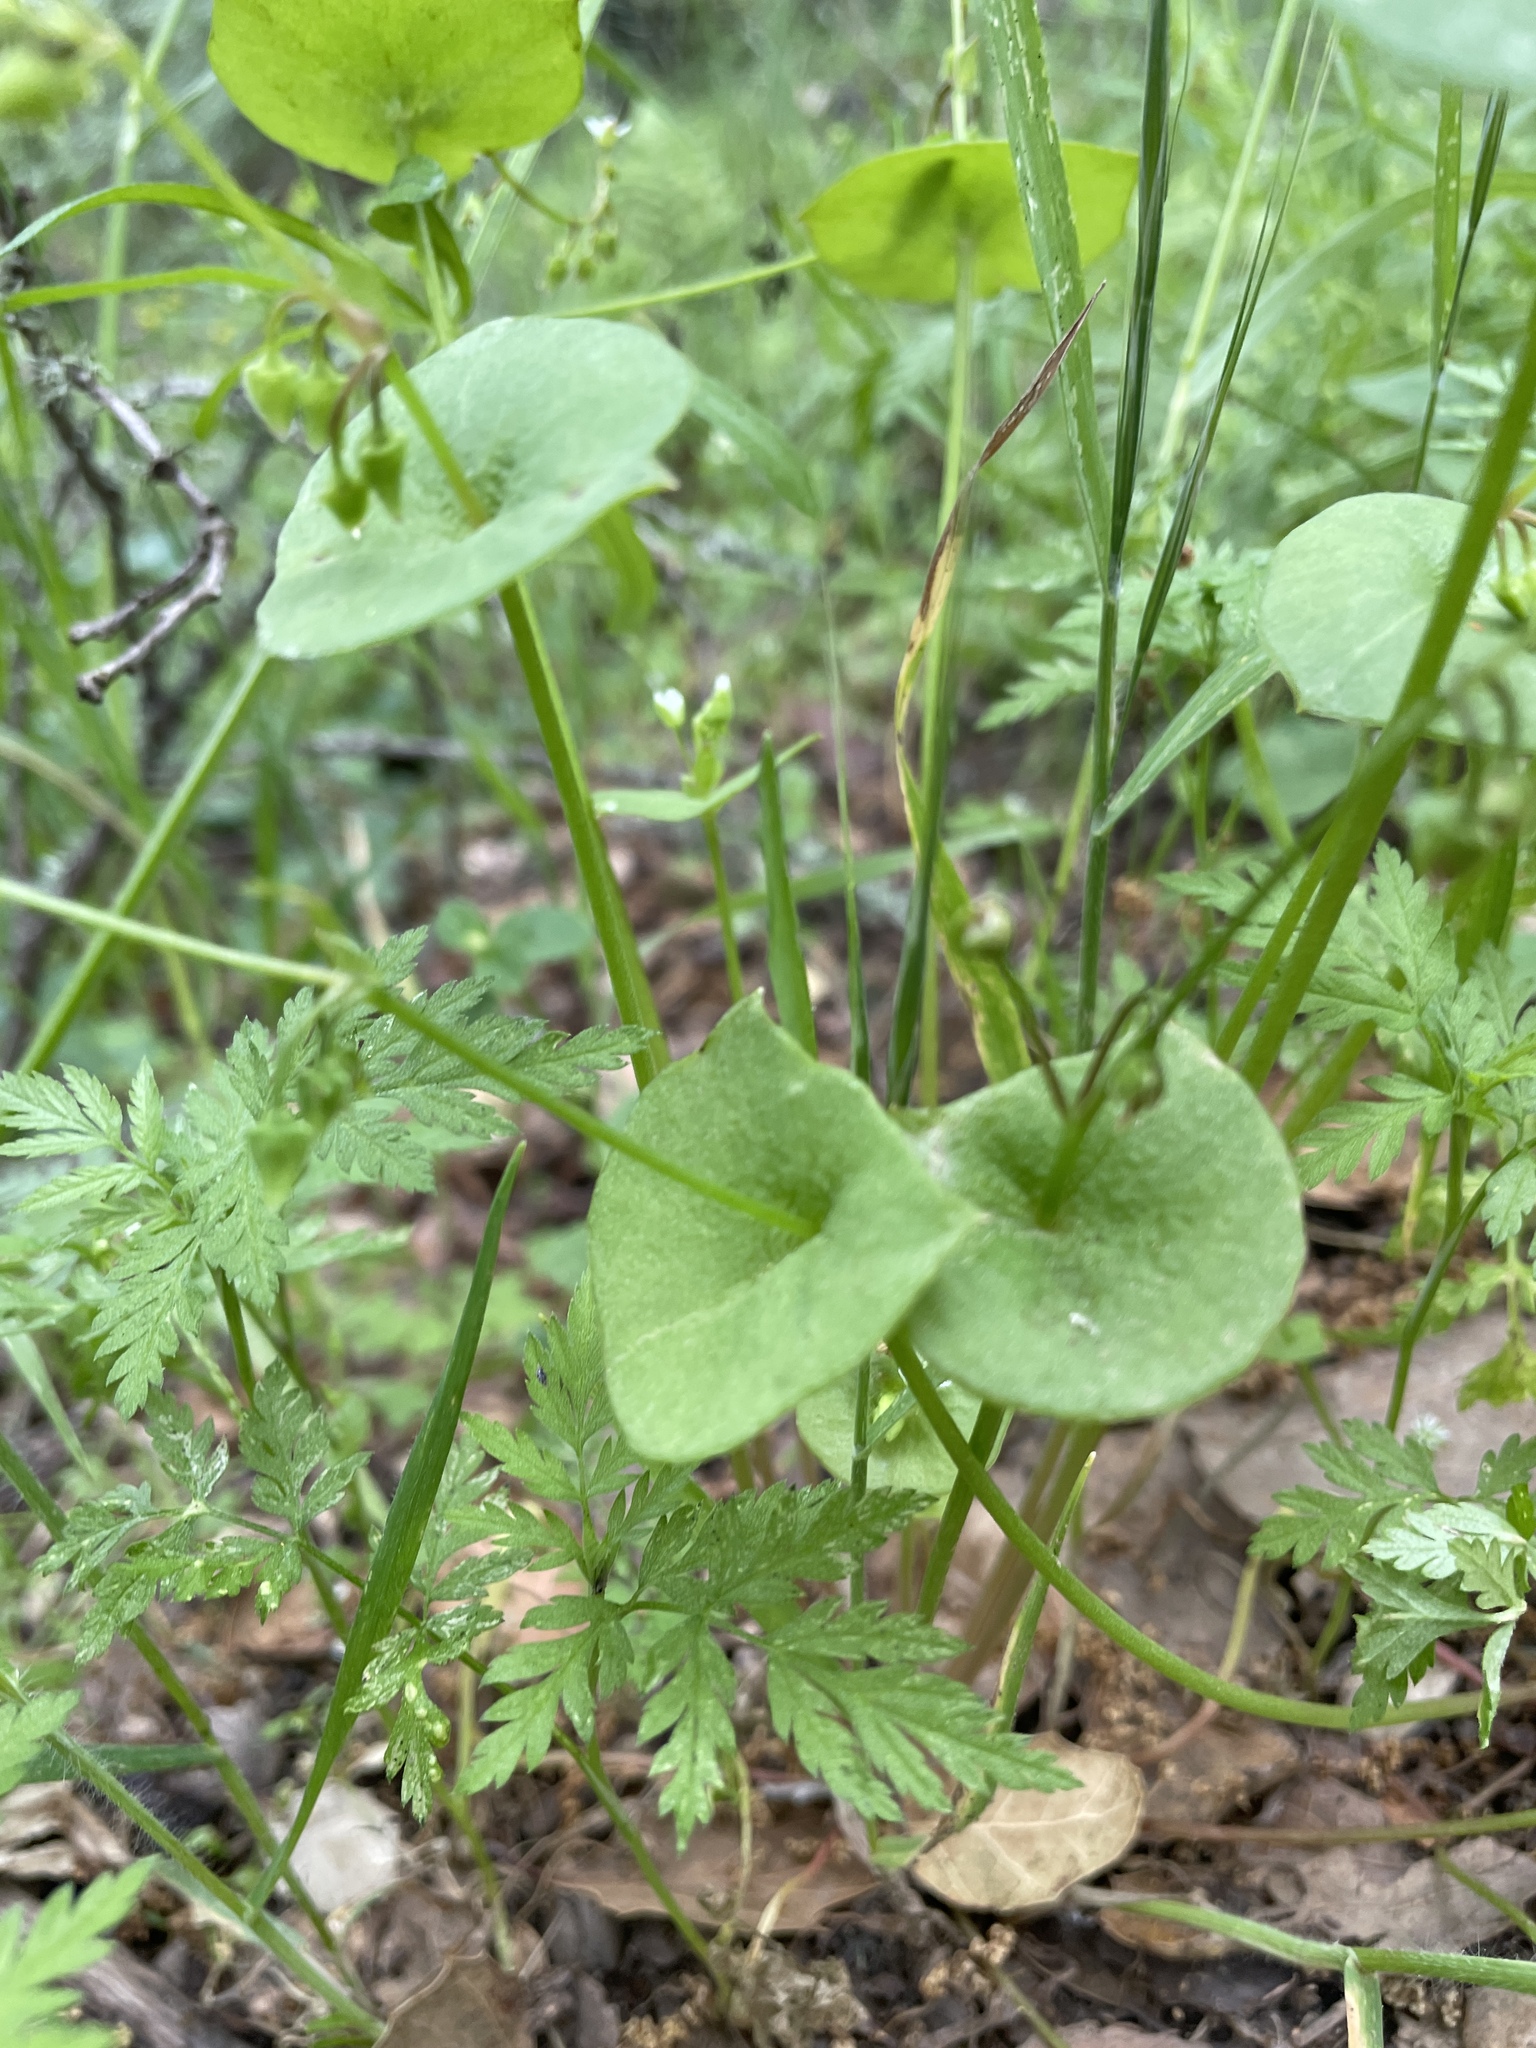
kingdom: Plantae
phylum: Tracheophyta
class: Magnoliopsida
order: Caryophyllales
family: Montiaceae
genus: Claytonia
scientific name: Claytonia perfoliata
